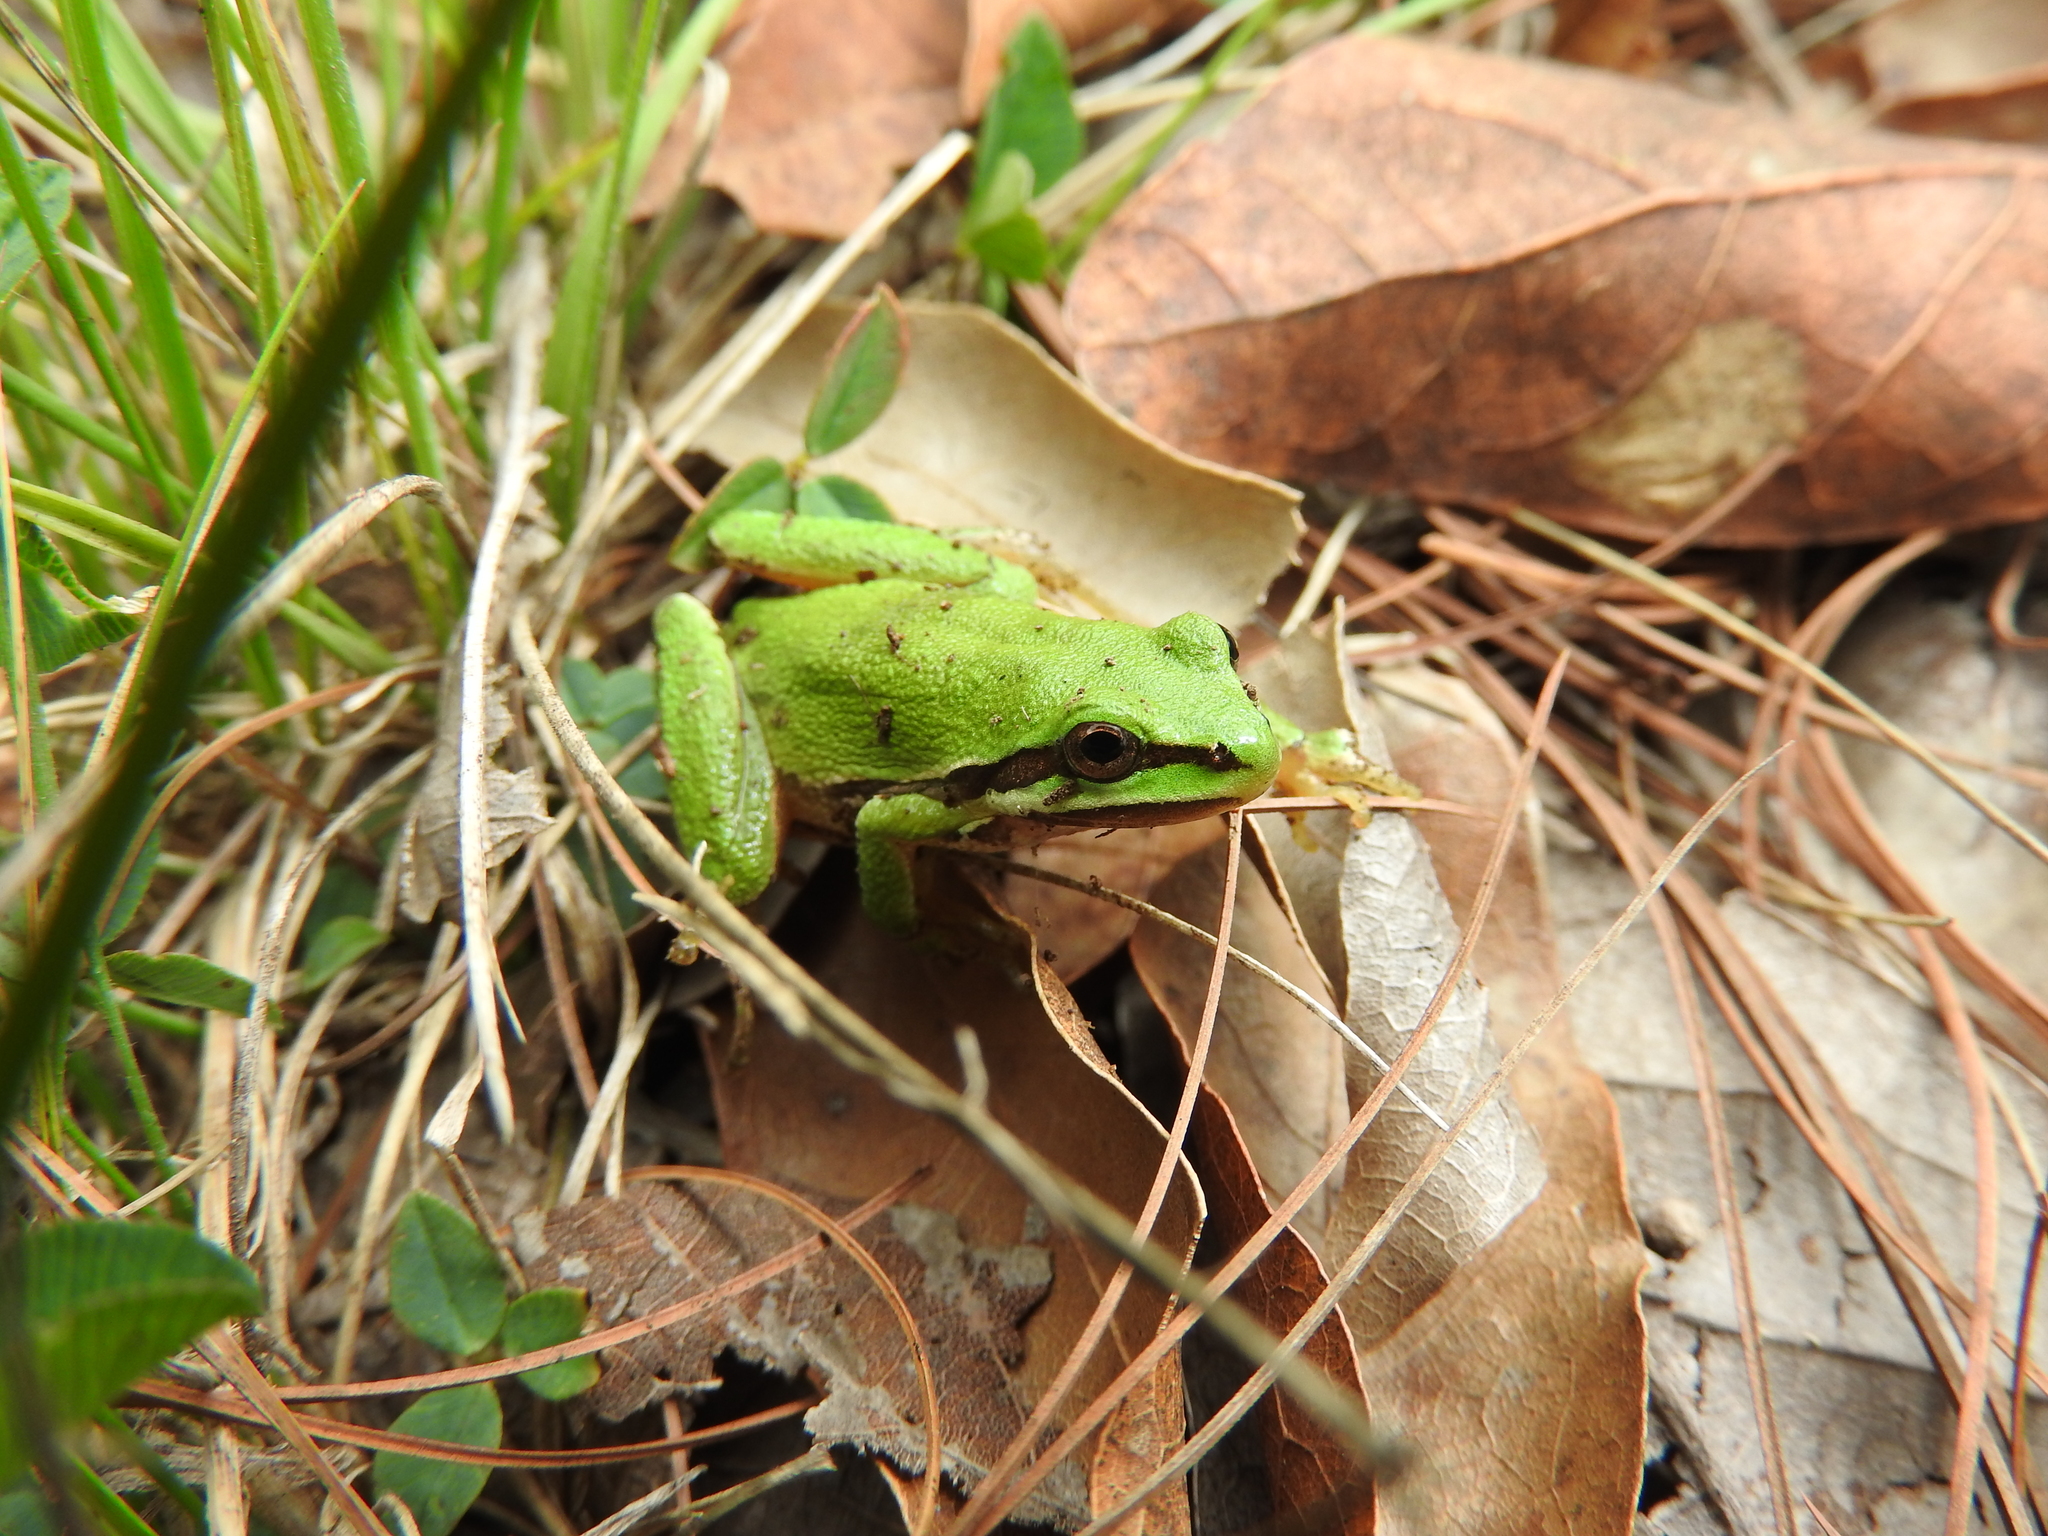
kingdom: Animalia
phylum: Chordata
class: Amphibia
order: Anura
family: Hylidae
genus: Dryophytes
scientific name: Dryophytes eximius
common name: Mountain treefrog
